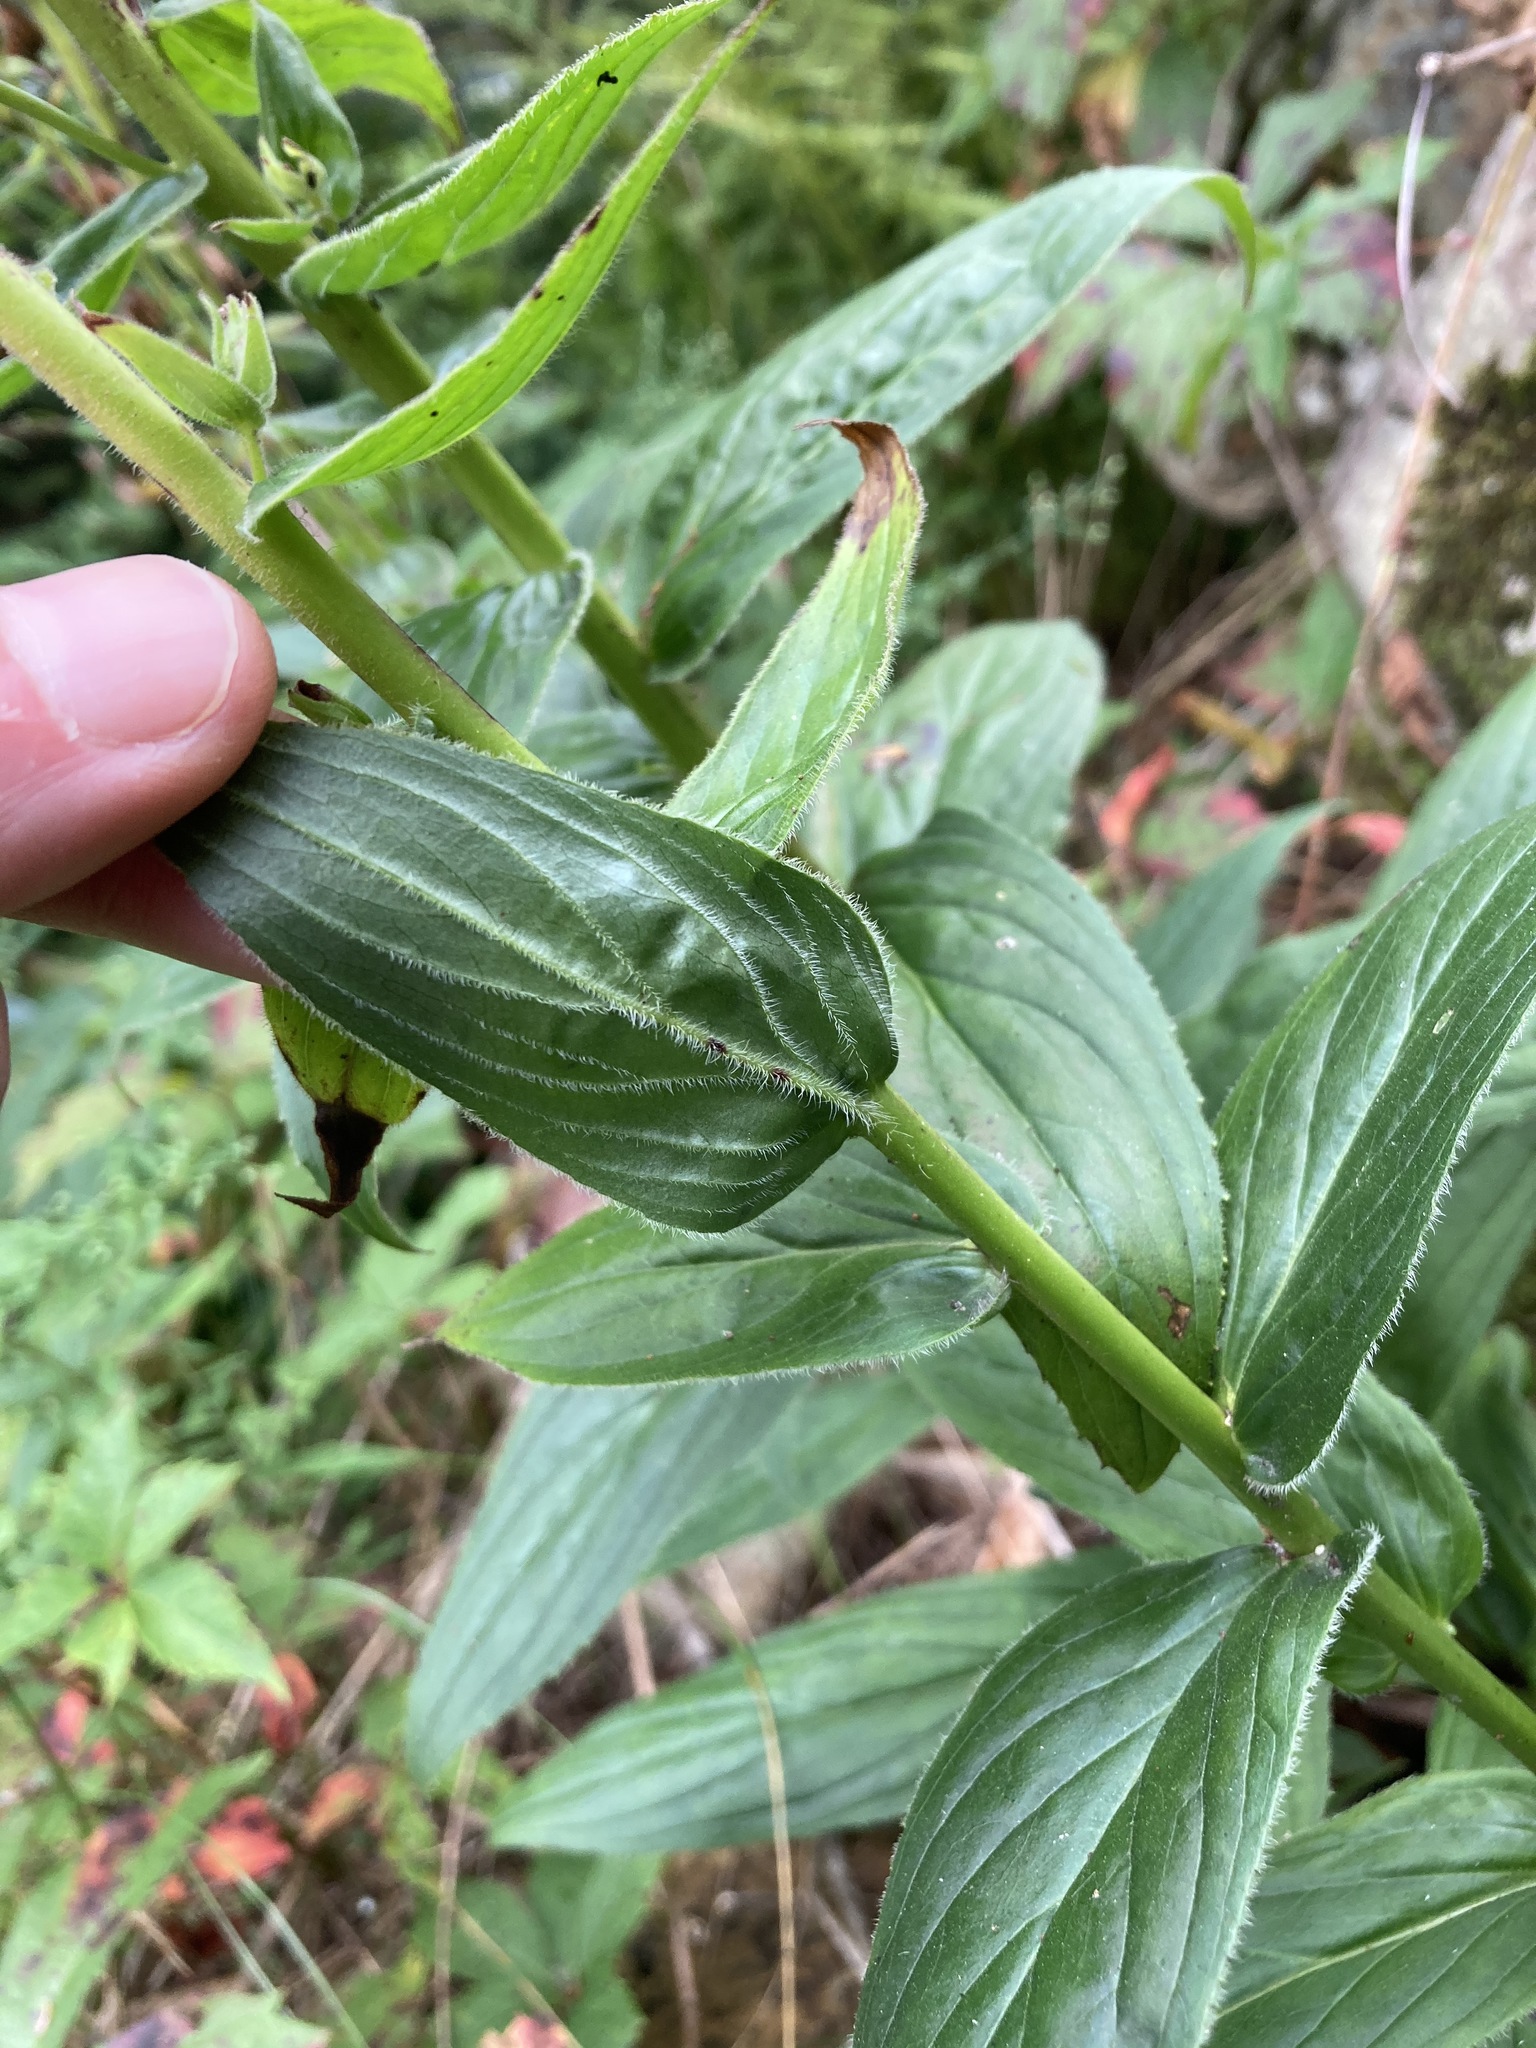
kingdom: Plantae
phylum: Tracheophyta
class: Magnoliopsida
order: Lamiales
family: Plantaginaceae
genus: Digitalis
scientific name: Digitalis grandiflora
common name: Yellow foxglove
